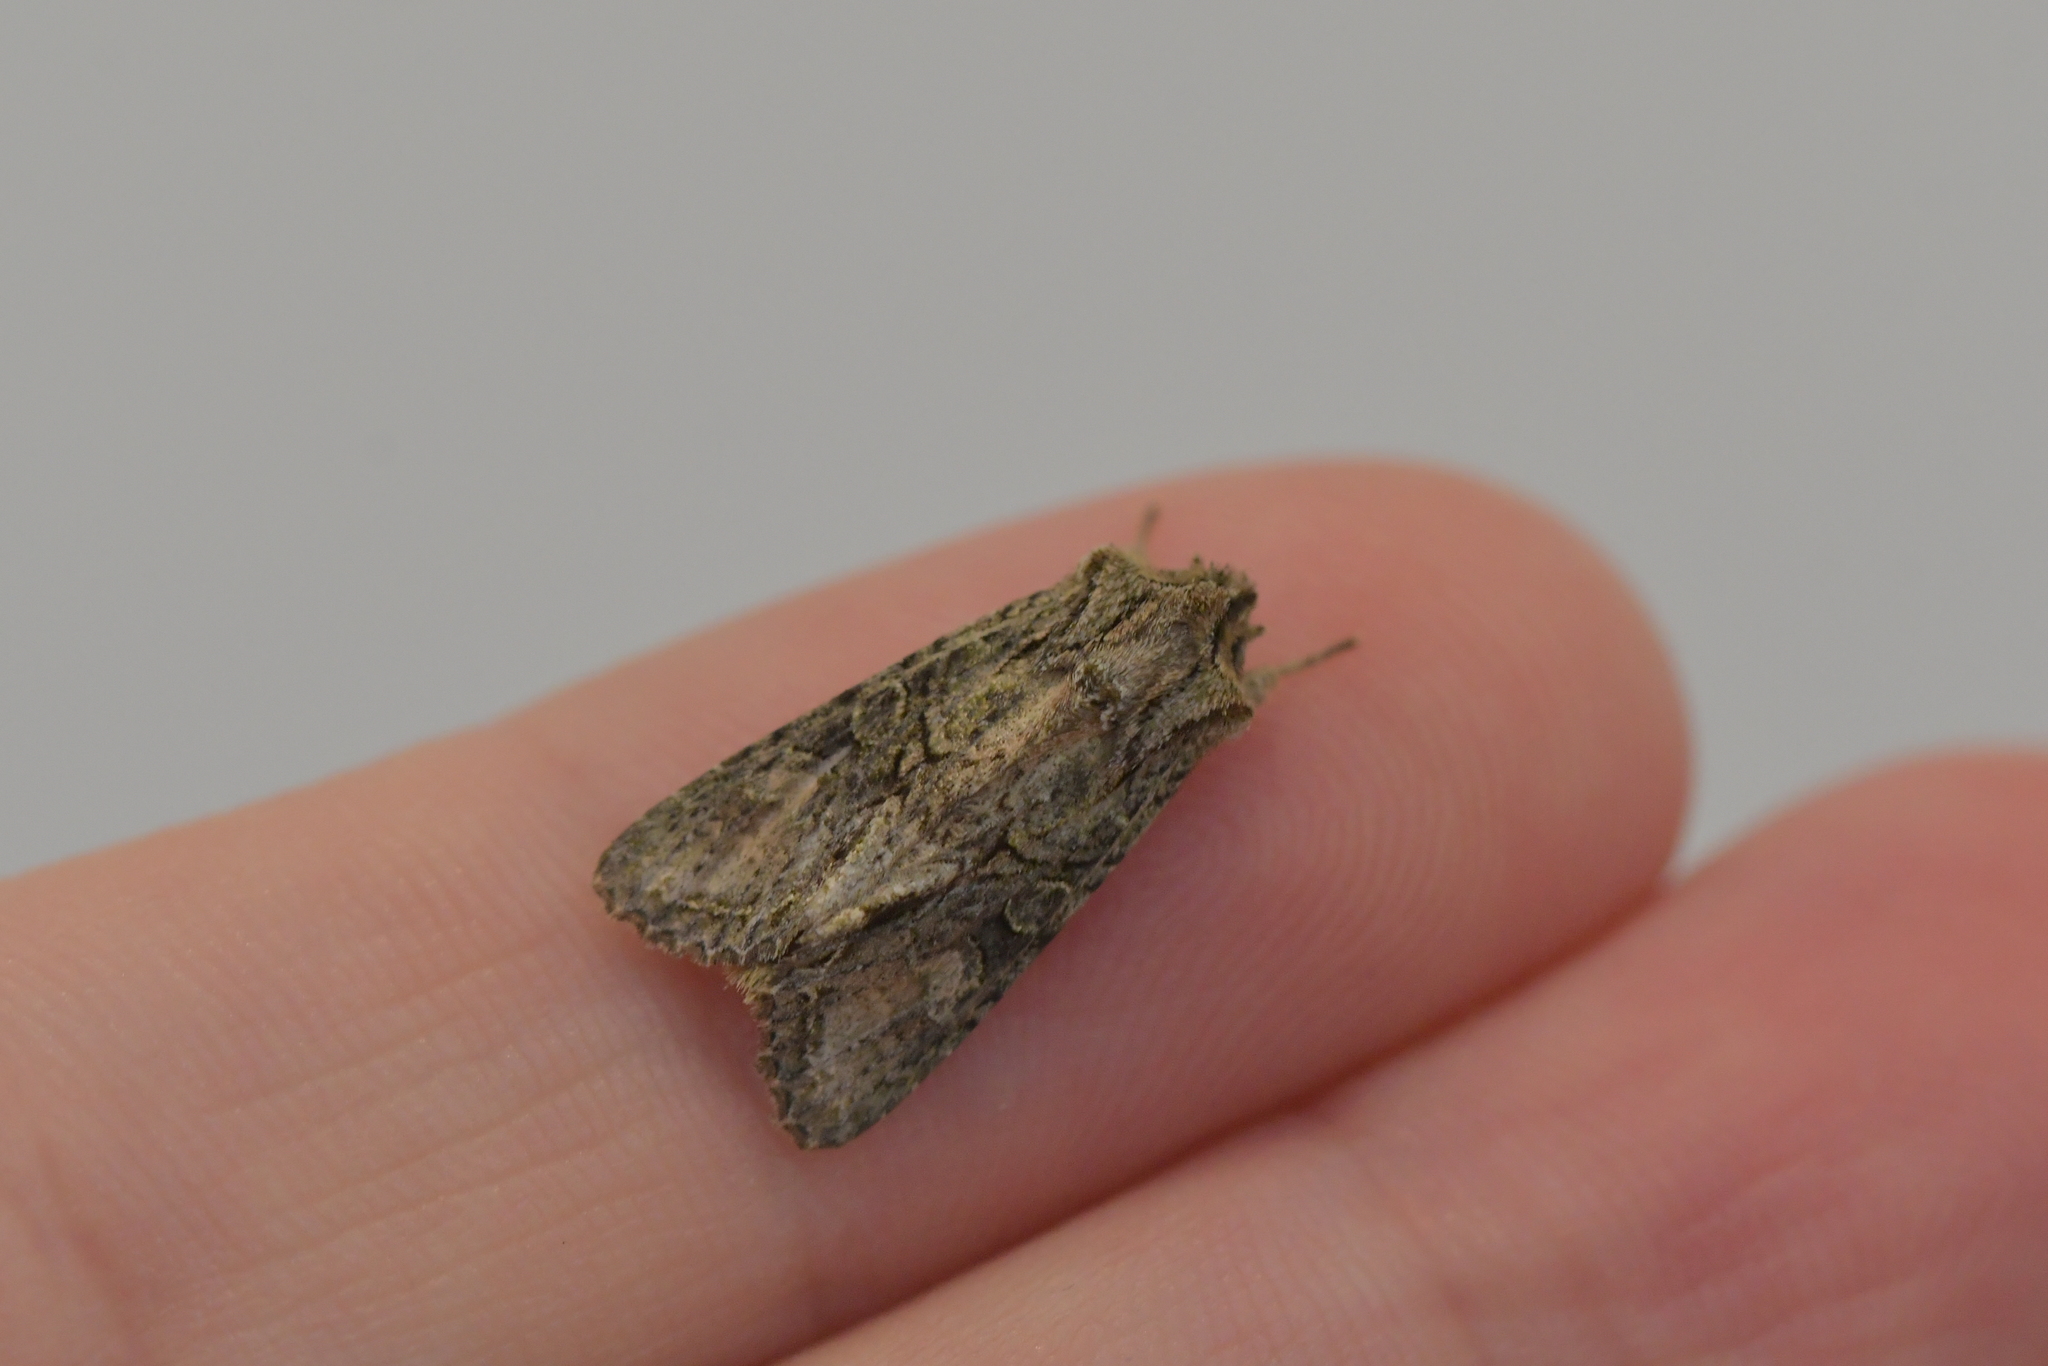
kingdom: Animalia
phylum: Arthropoda
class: Insecta
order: Lepidoptera
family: Noctuidae
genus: Ichneutica
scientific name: Ichneutica mutans
